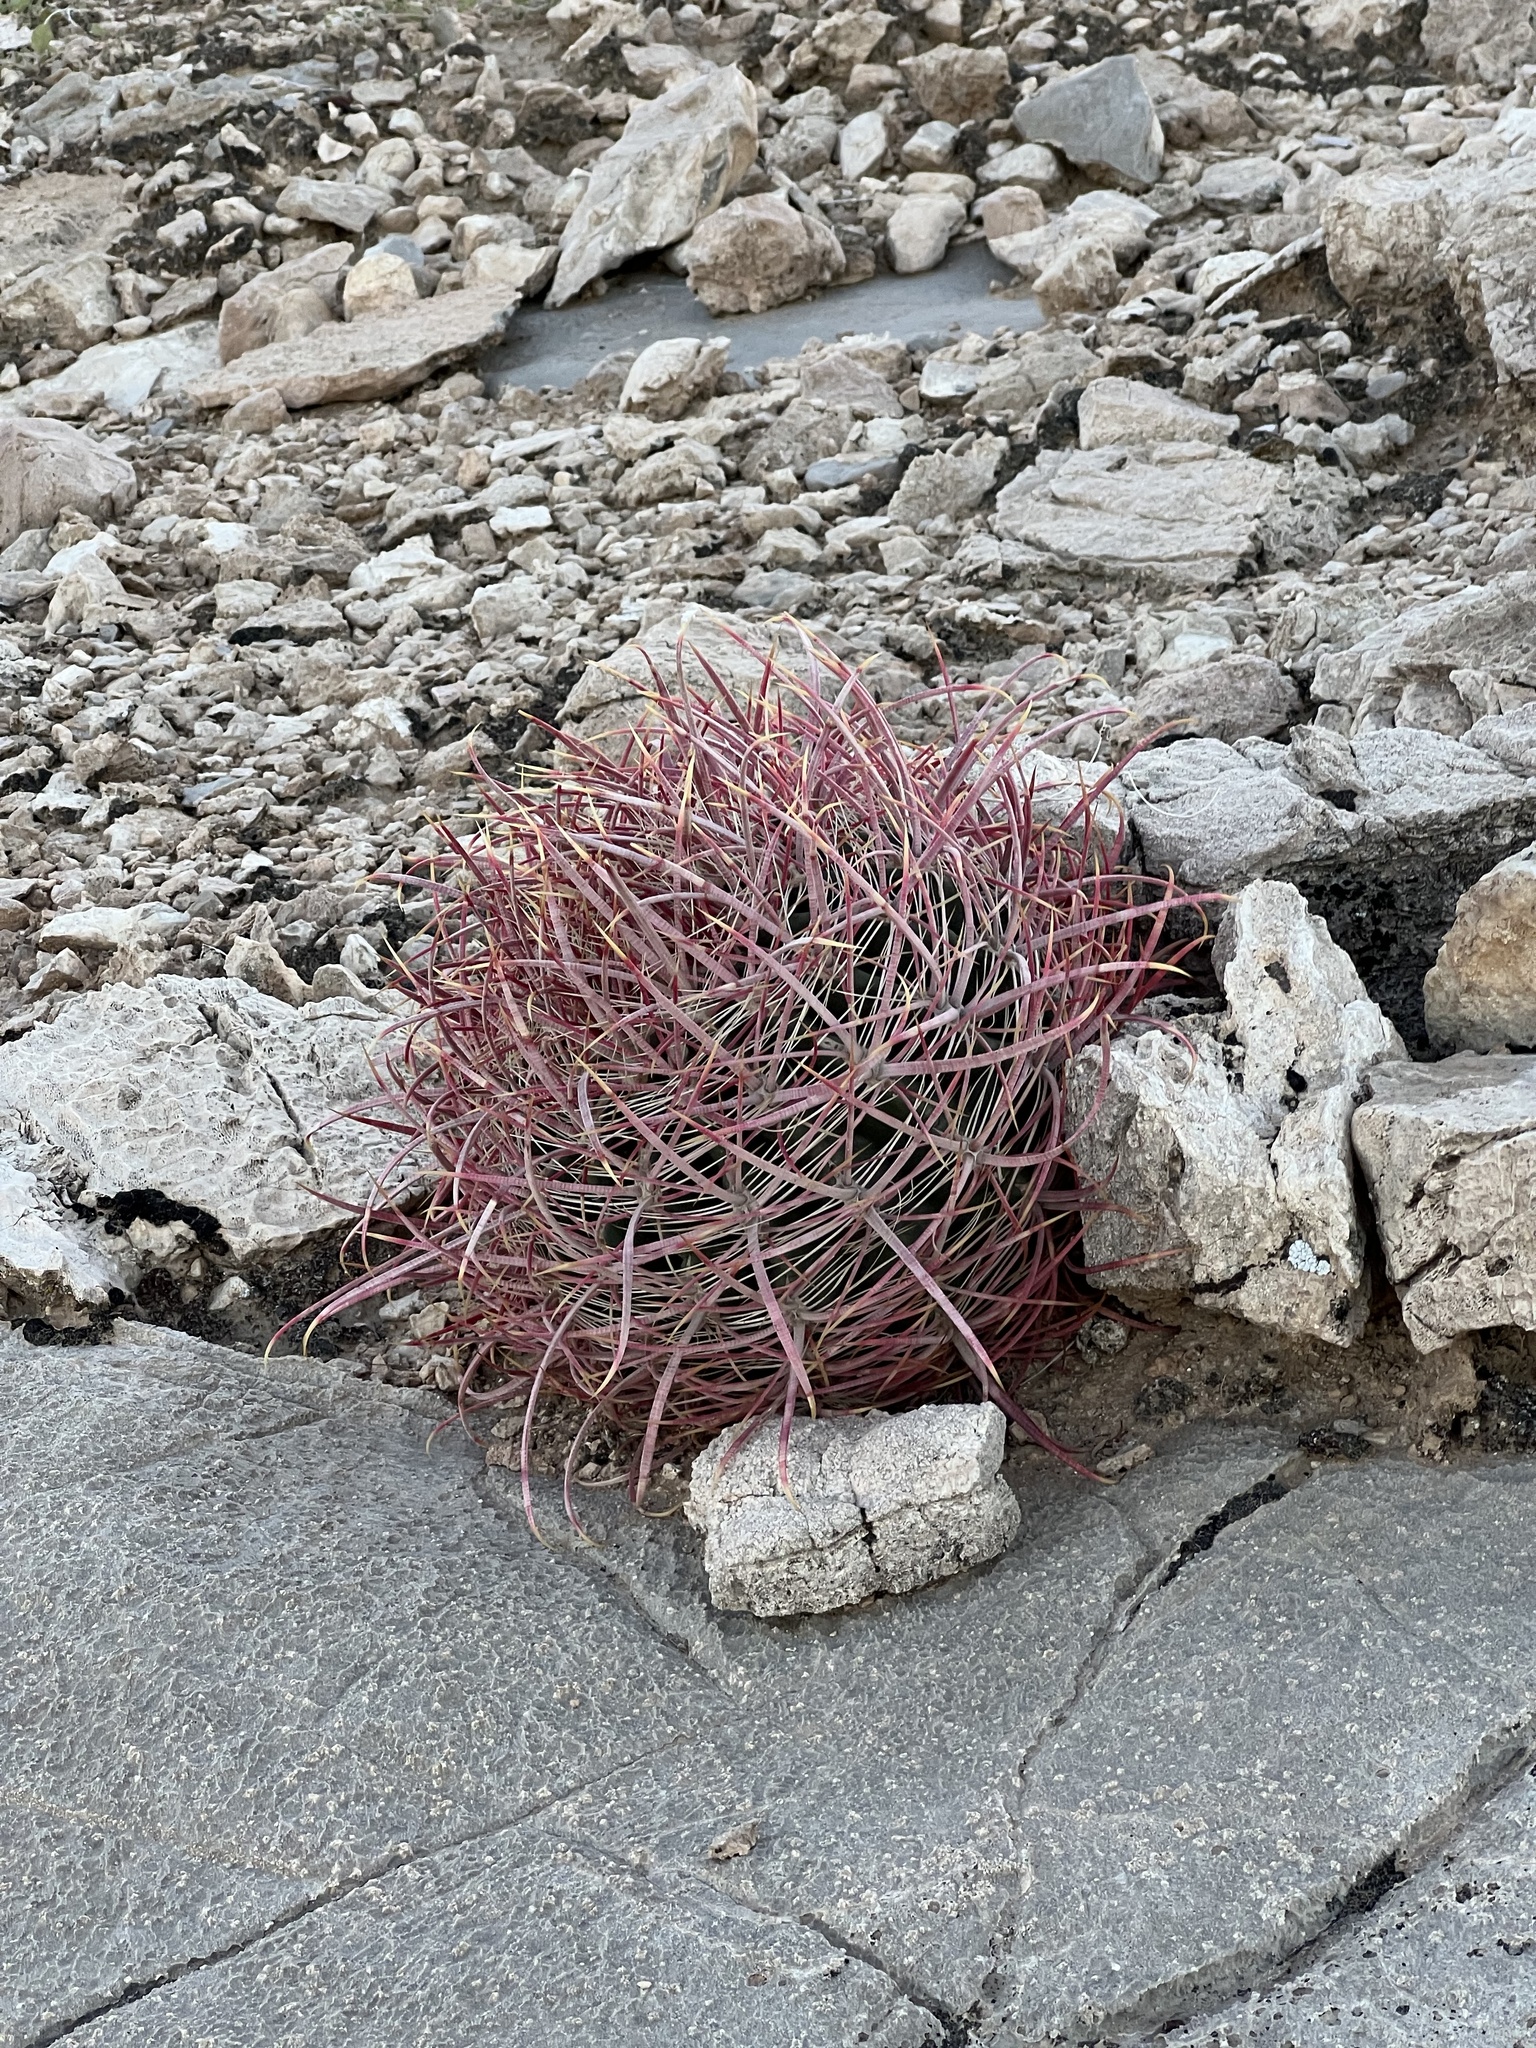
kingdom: Plantae
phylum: Tracheophyta
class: Magnoliopsida
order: Caryophyllales
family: Cactaceae
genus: Ferocactus
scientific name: Ferocactus cylindraceus
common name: California barrel cactus
